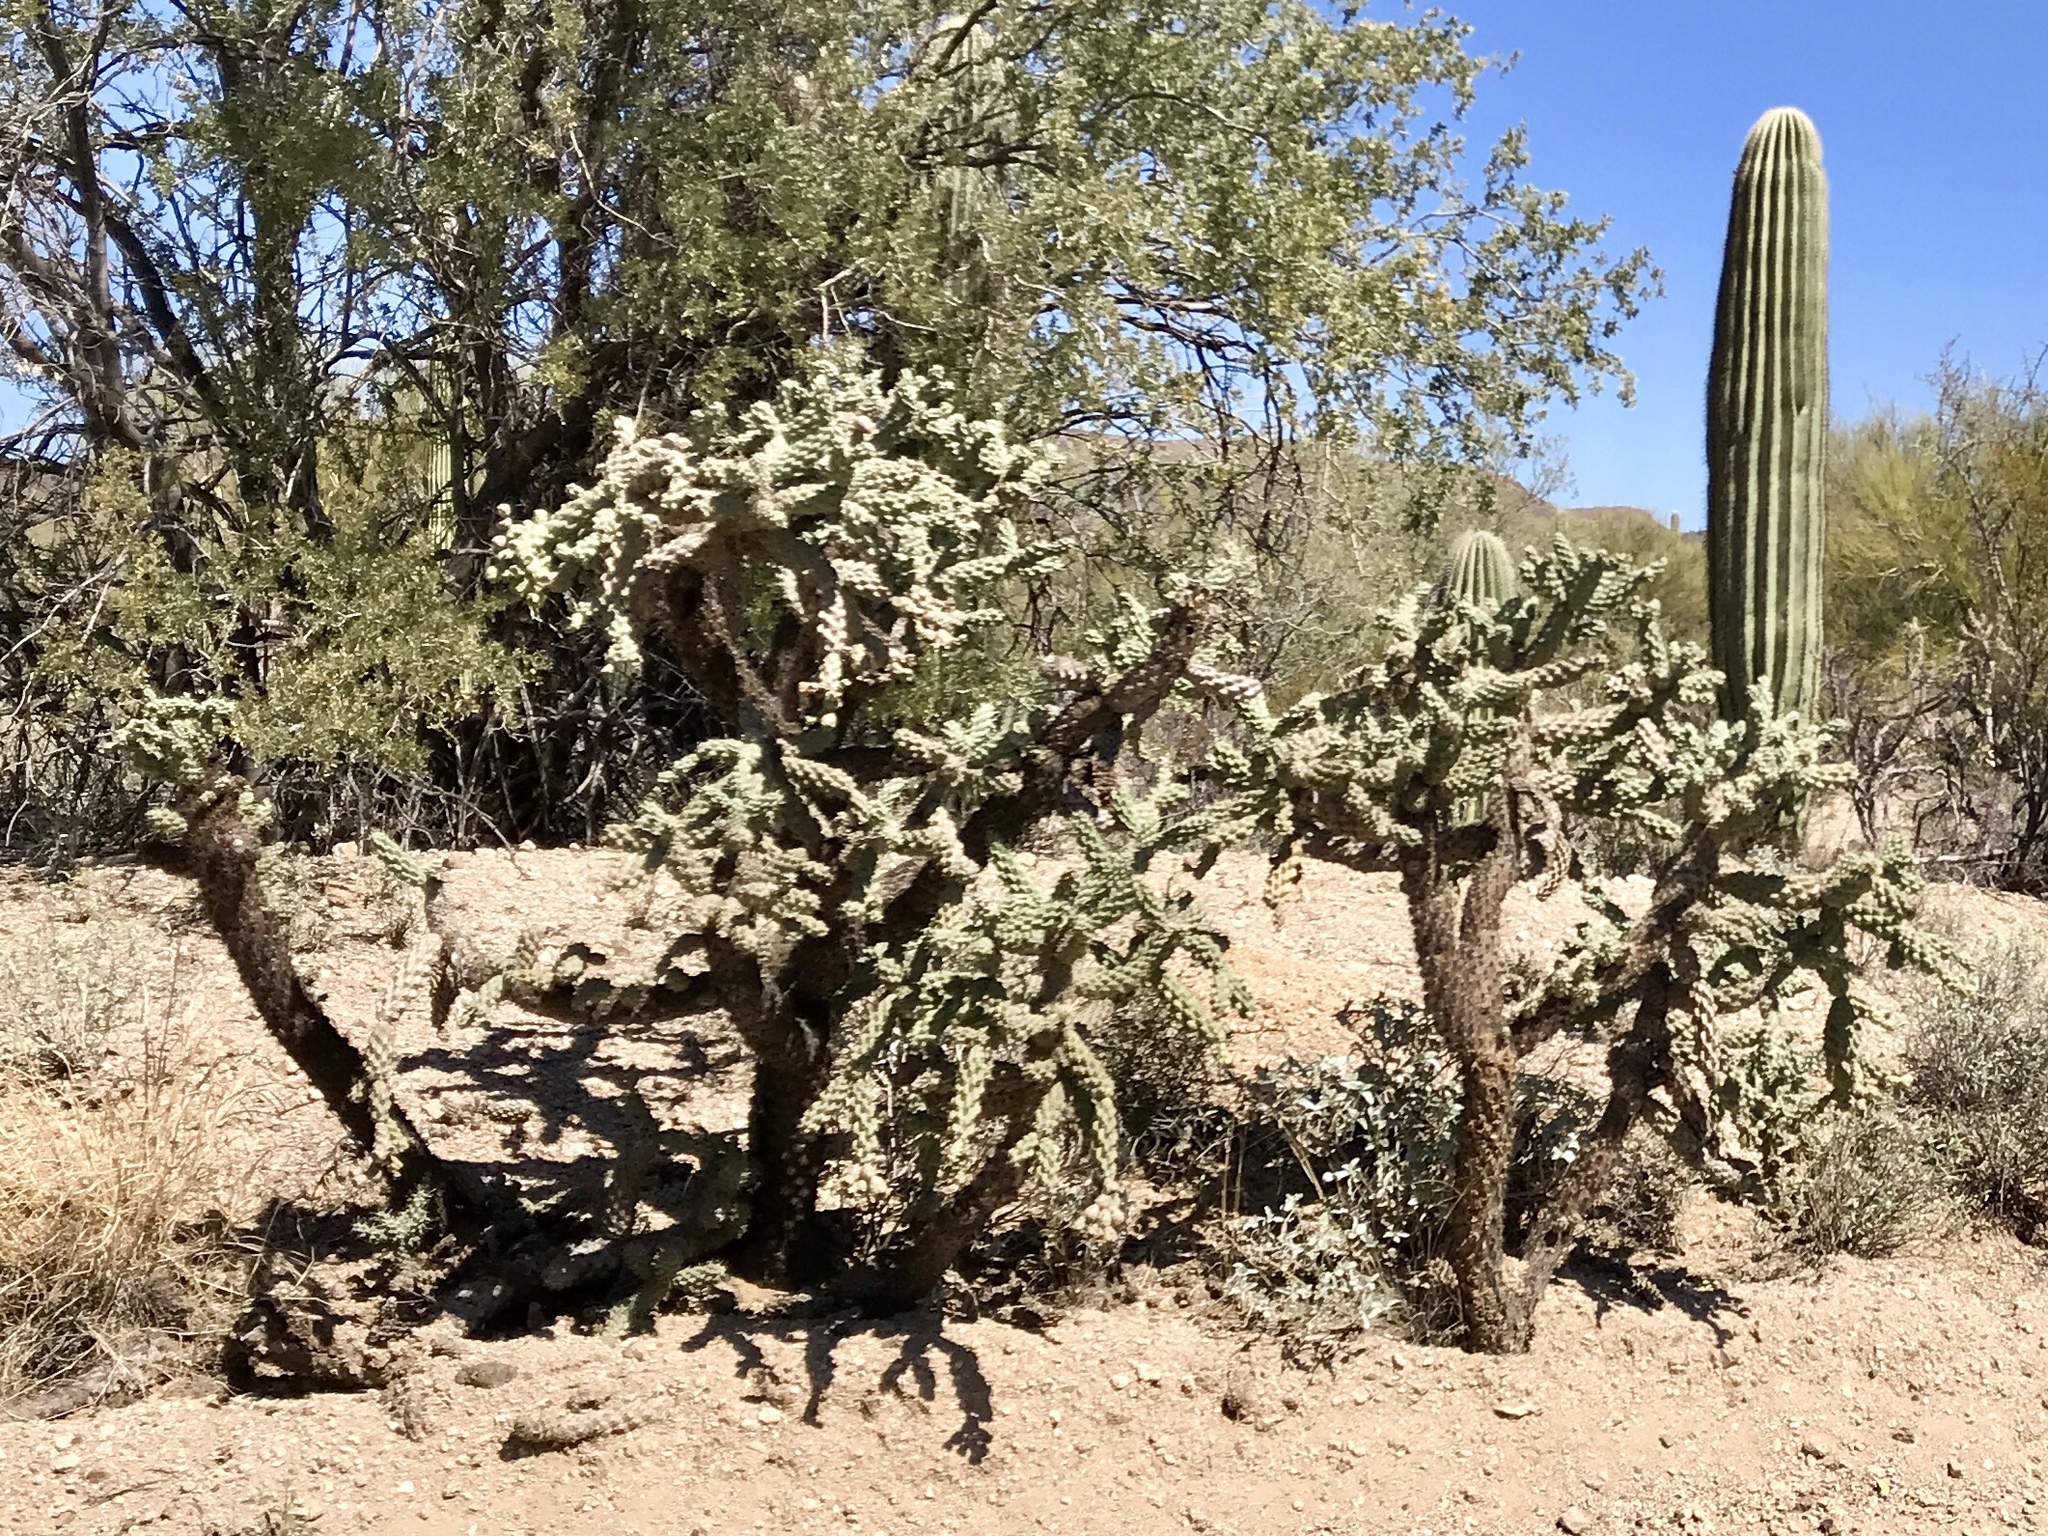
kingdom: Plantae
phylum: Tracheophyta
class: Magnoliopsida
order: Caryophyllales
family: Cactaceae
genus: Cylindropuntia
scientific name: Cylindropuntia fulgida
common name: Jumping cholla
